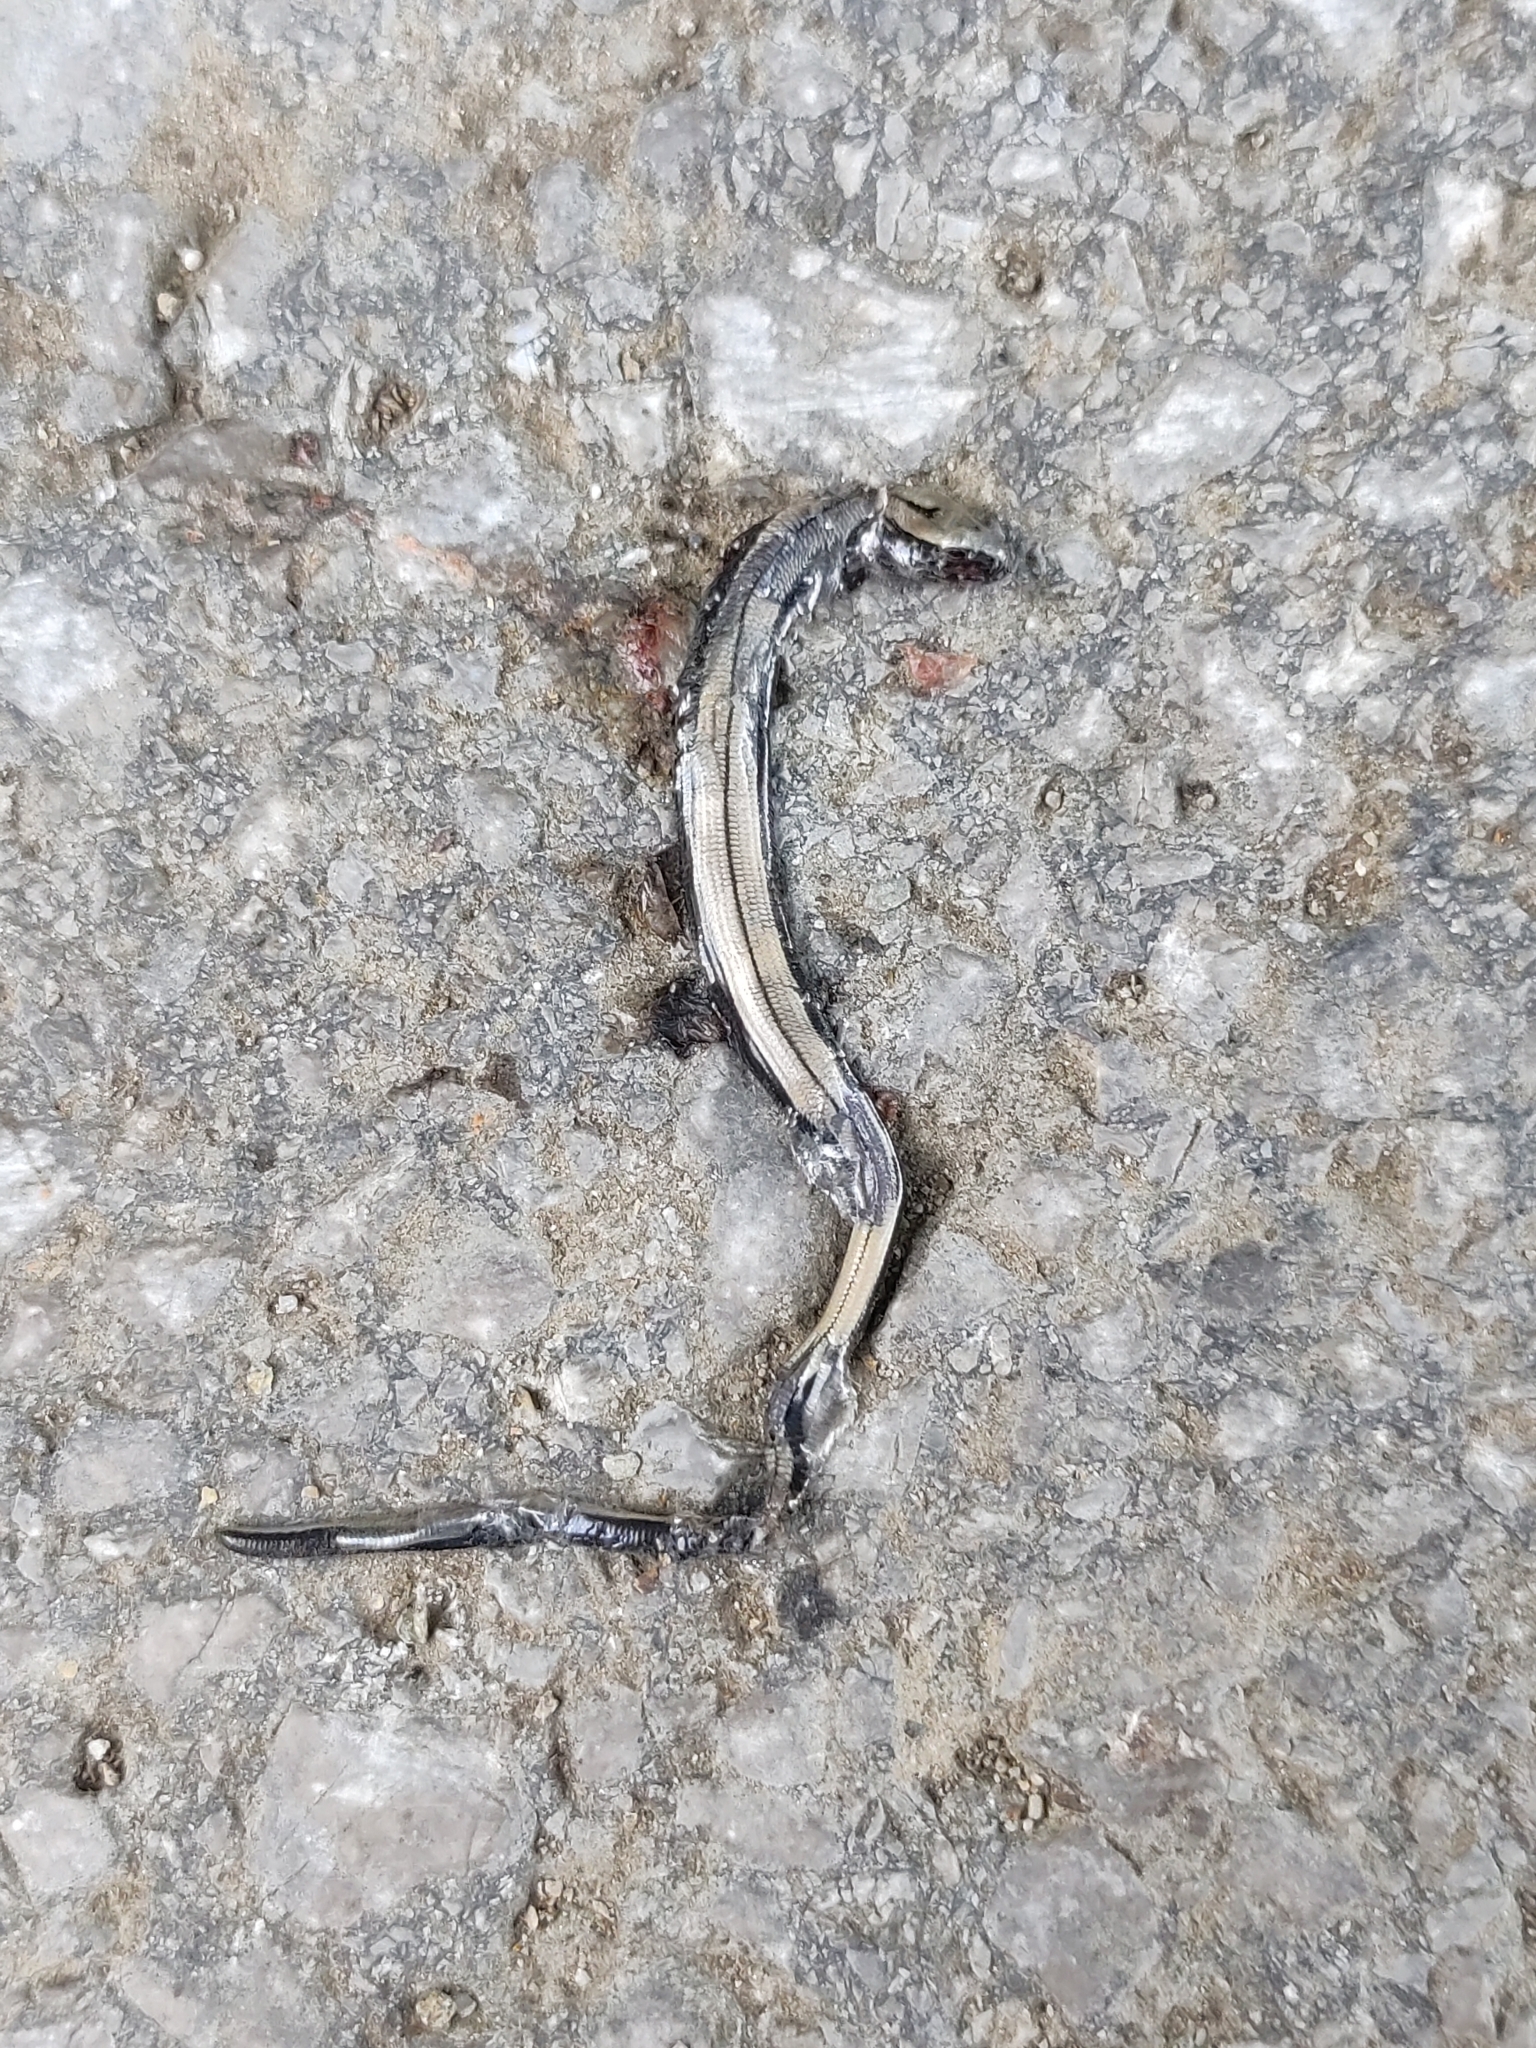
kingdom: Animalia
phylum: Chordata
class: Squamata
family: Anguidae
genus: Anguis
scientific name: Anguis fragilis
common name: Slow worm
